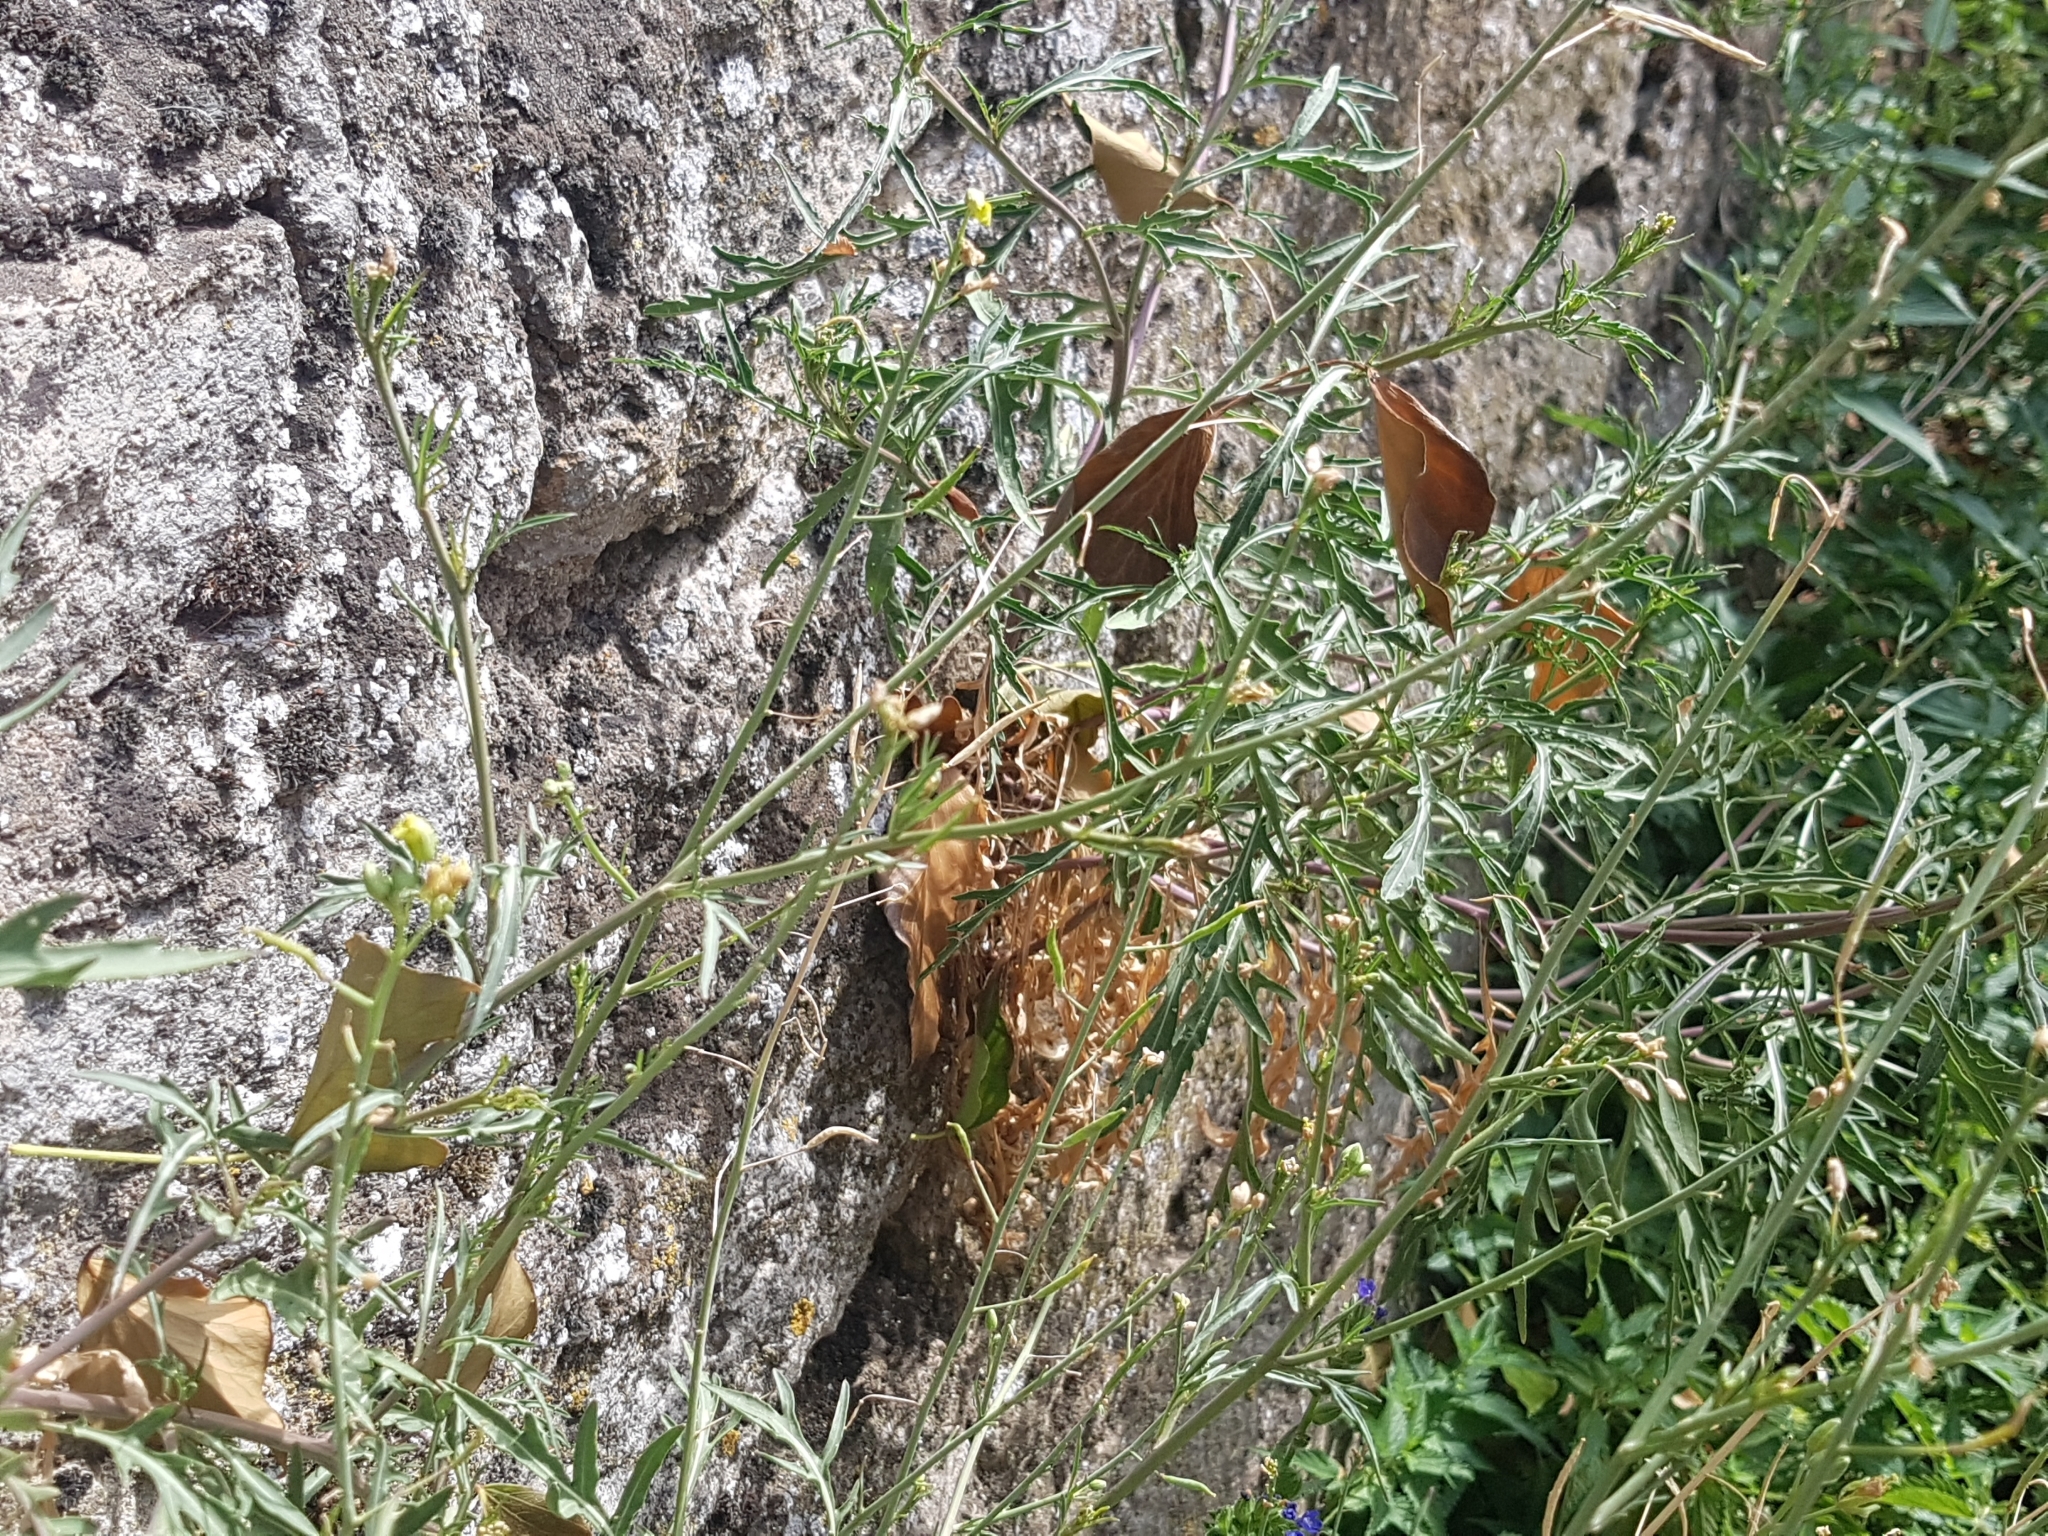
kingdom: Plantae
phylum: Tracheophyta
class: Magnoliopsida
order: Brassicales
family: Brassicaceae
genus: Diplotaxis
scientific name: Diplotaxis tenuifolia
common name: Perennial wall-rocket
